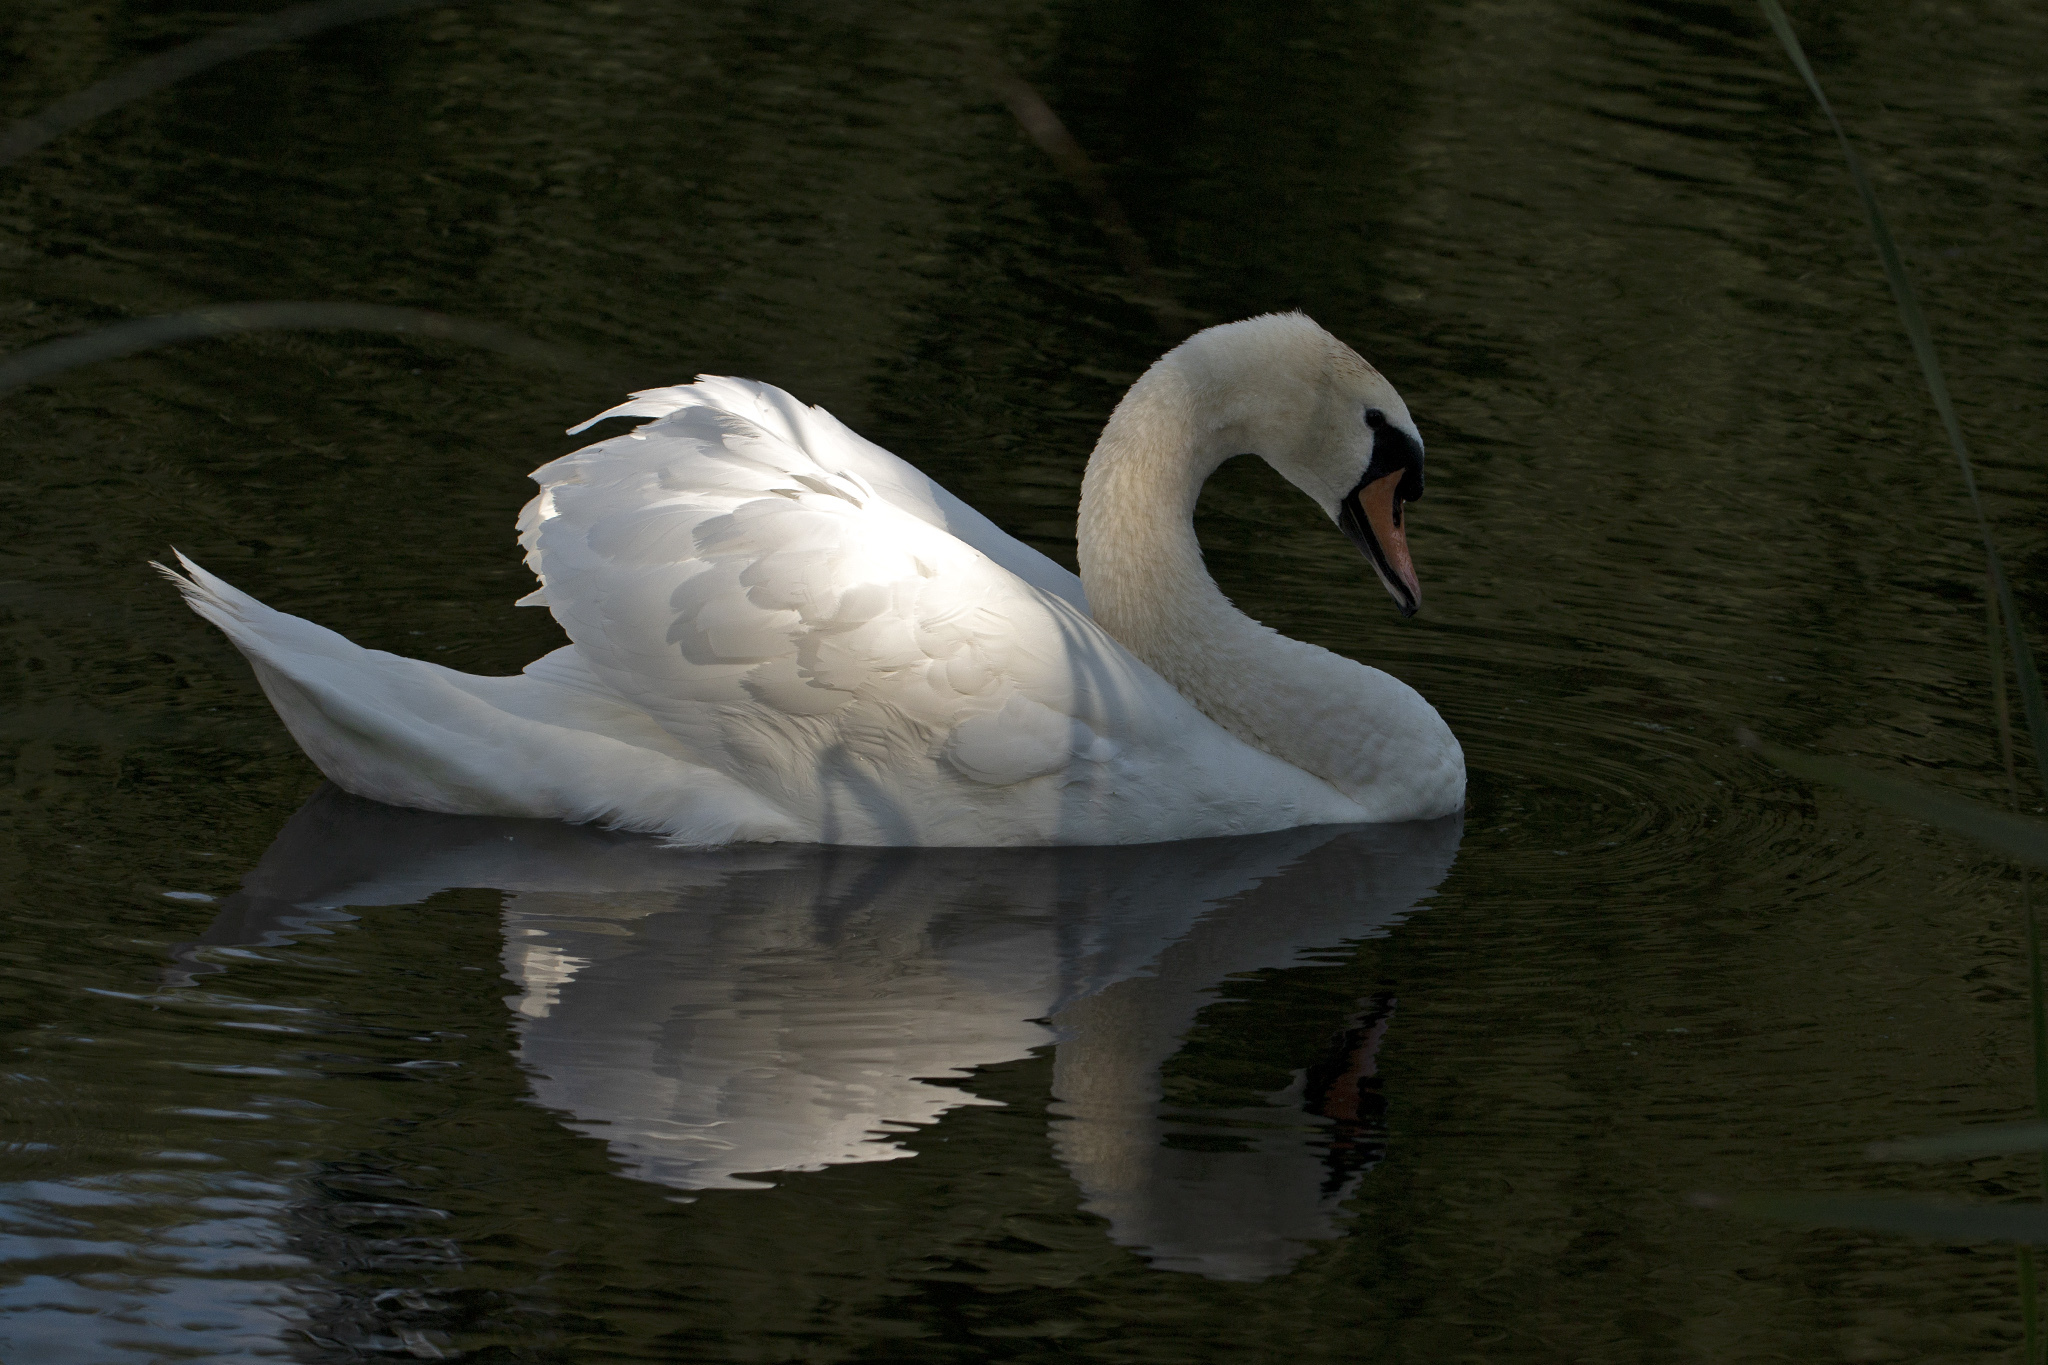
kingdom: Animalia
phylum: Chordata
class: Aves
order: Anseriformes
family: Anatidae
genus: Cygnus
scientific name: Cygnus olor
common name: Mute swan
